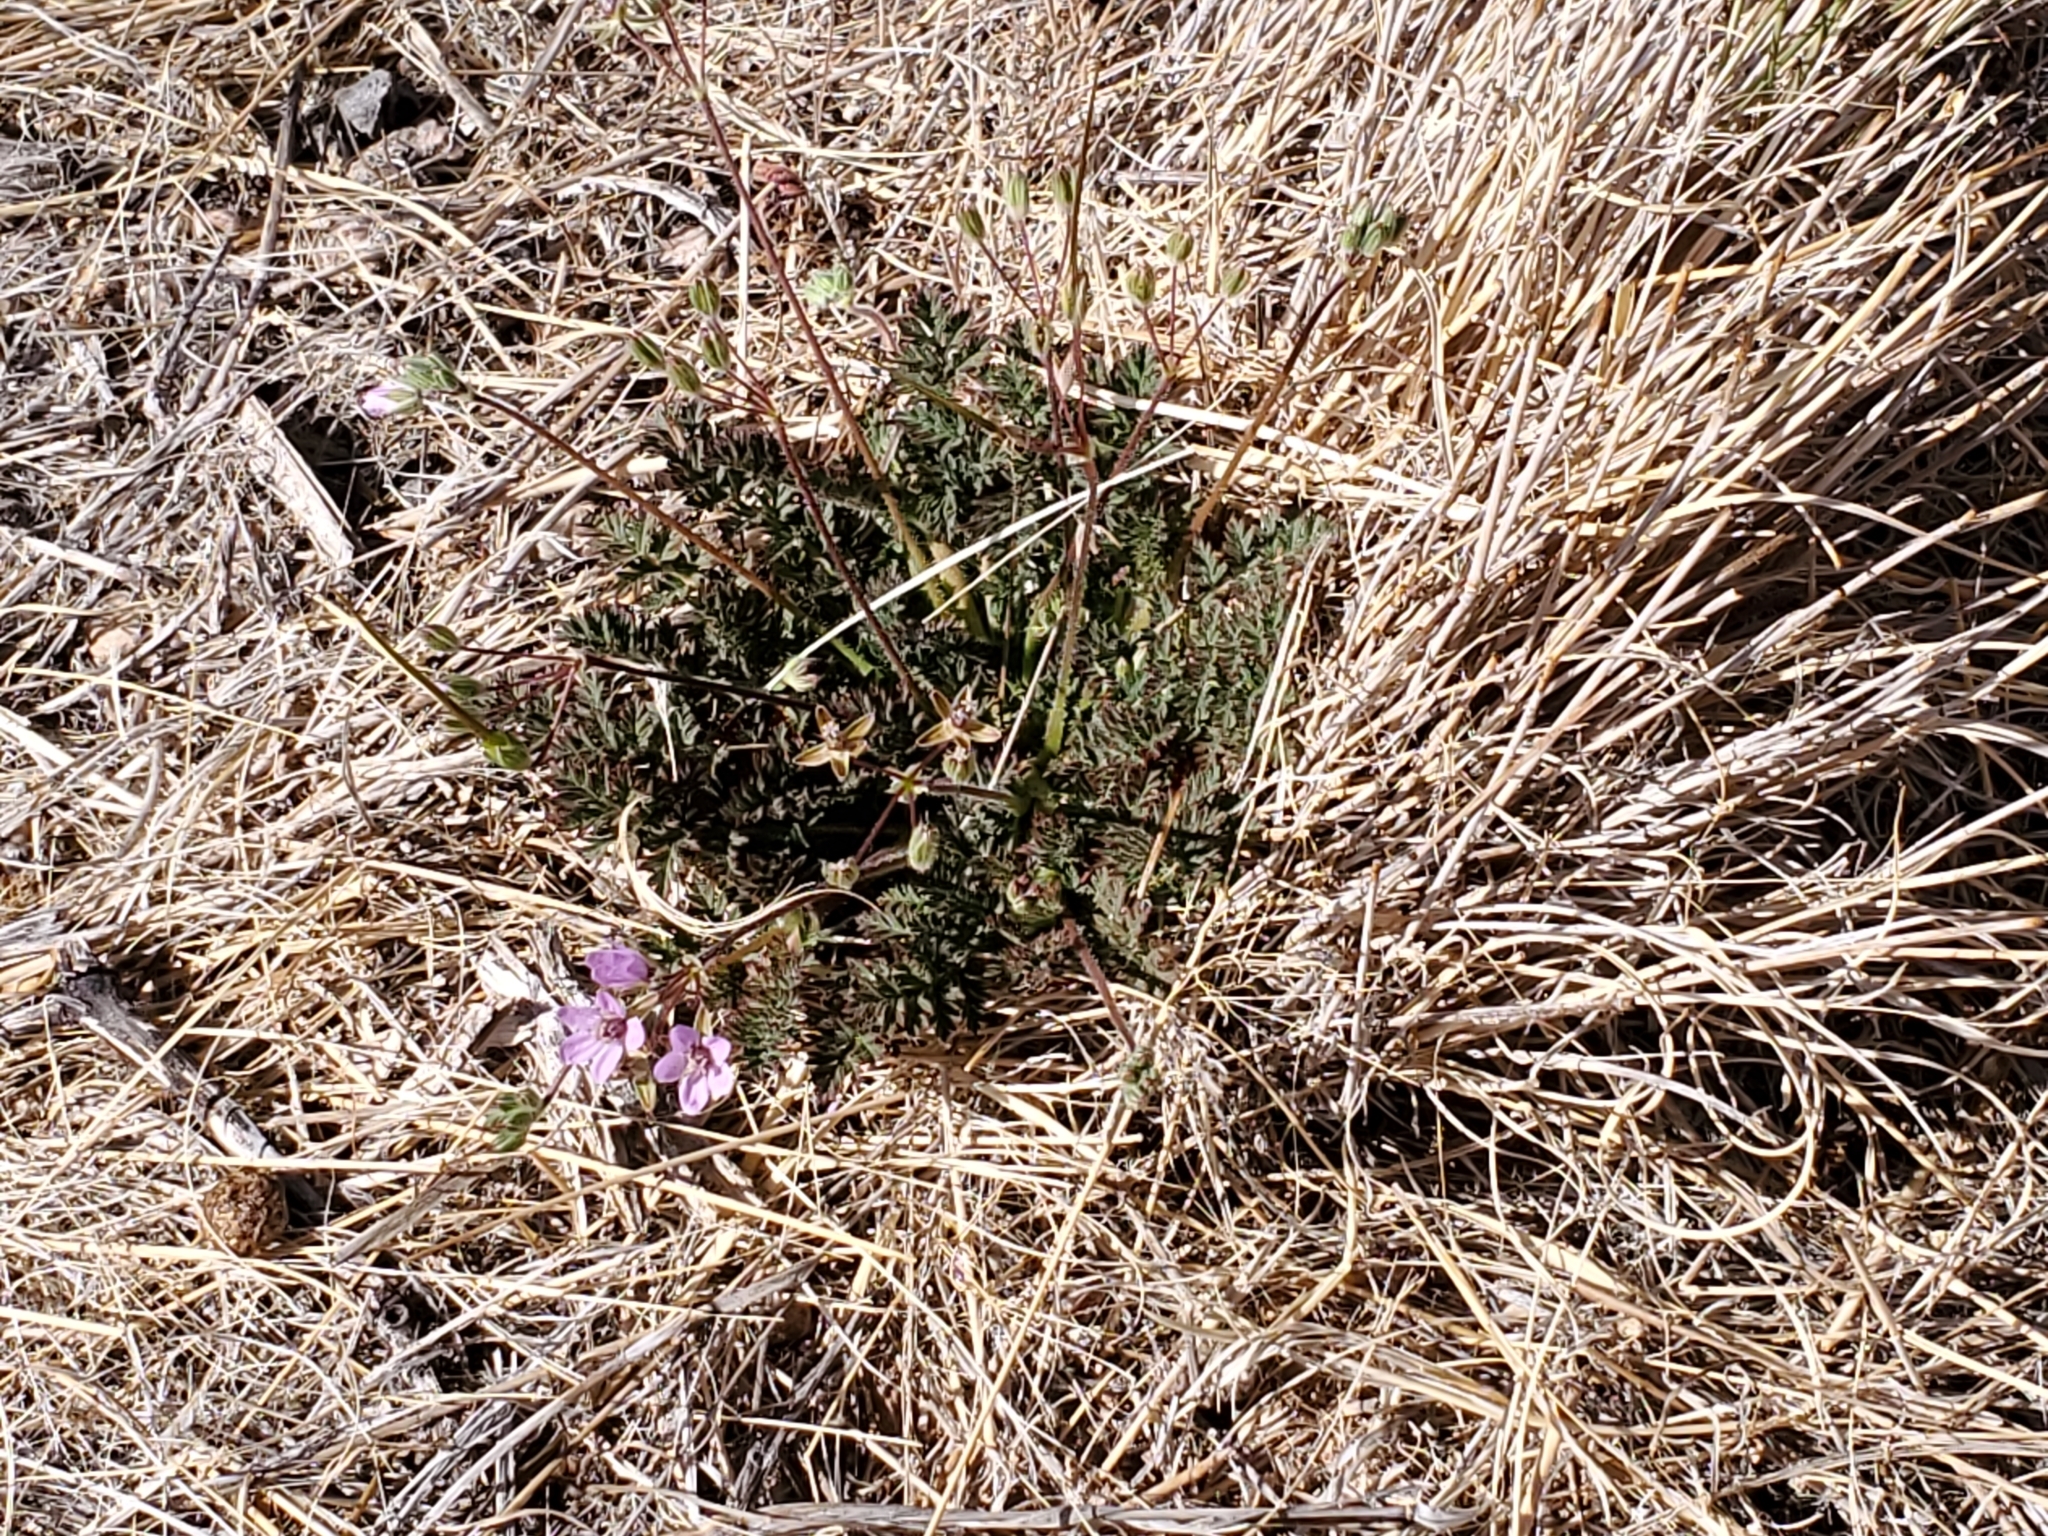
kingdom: Plantae
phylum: Tracheophyta
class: Magnoliopsida
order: Geraniales
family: Geraniaceae
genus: Erodium
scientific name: Erodium cicutarium
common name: Common stork's-bill
